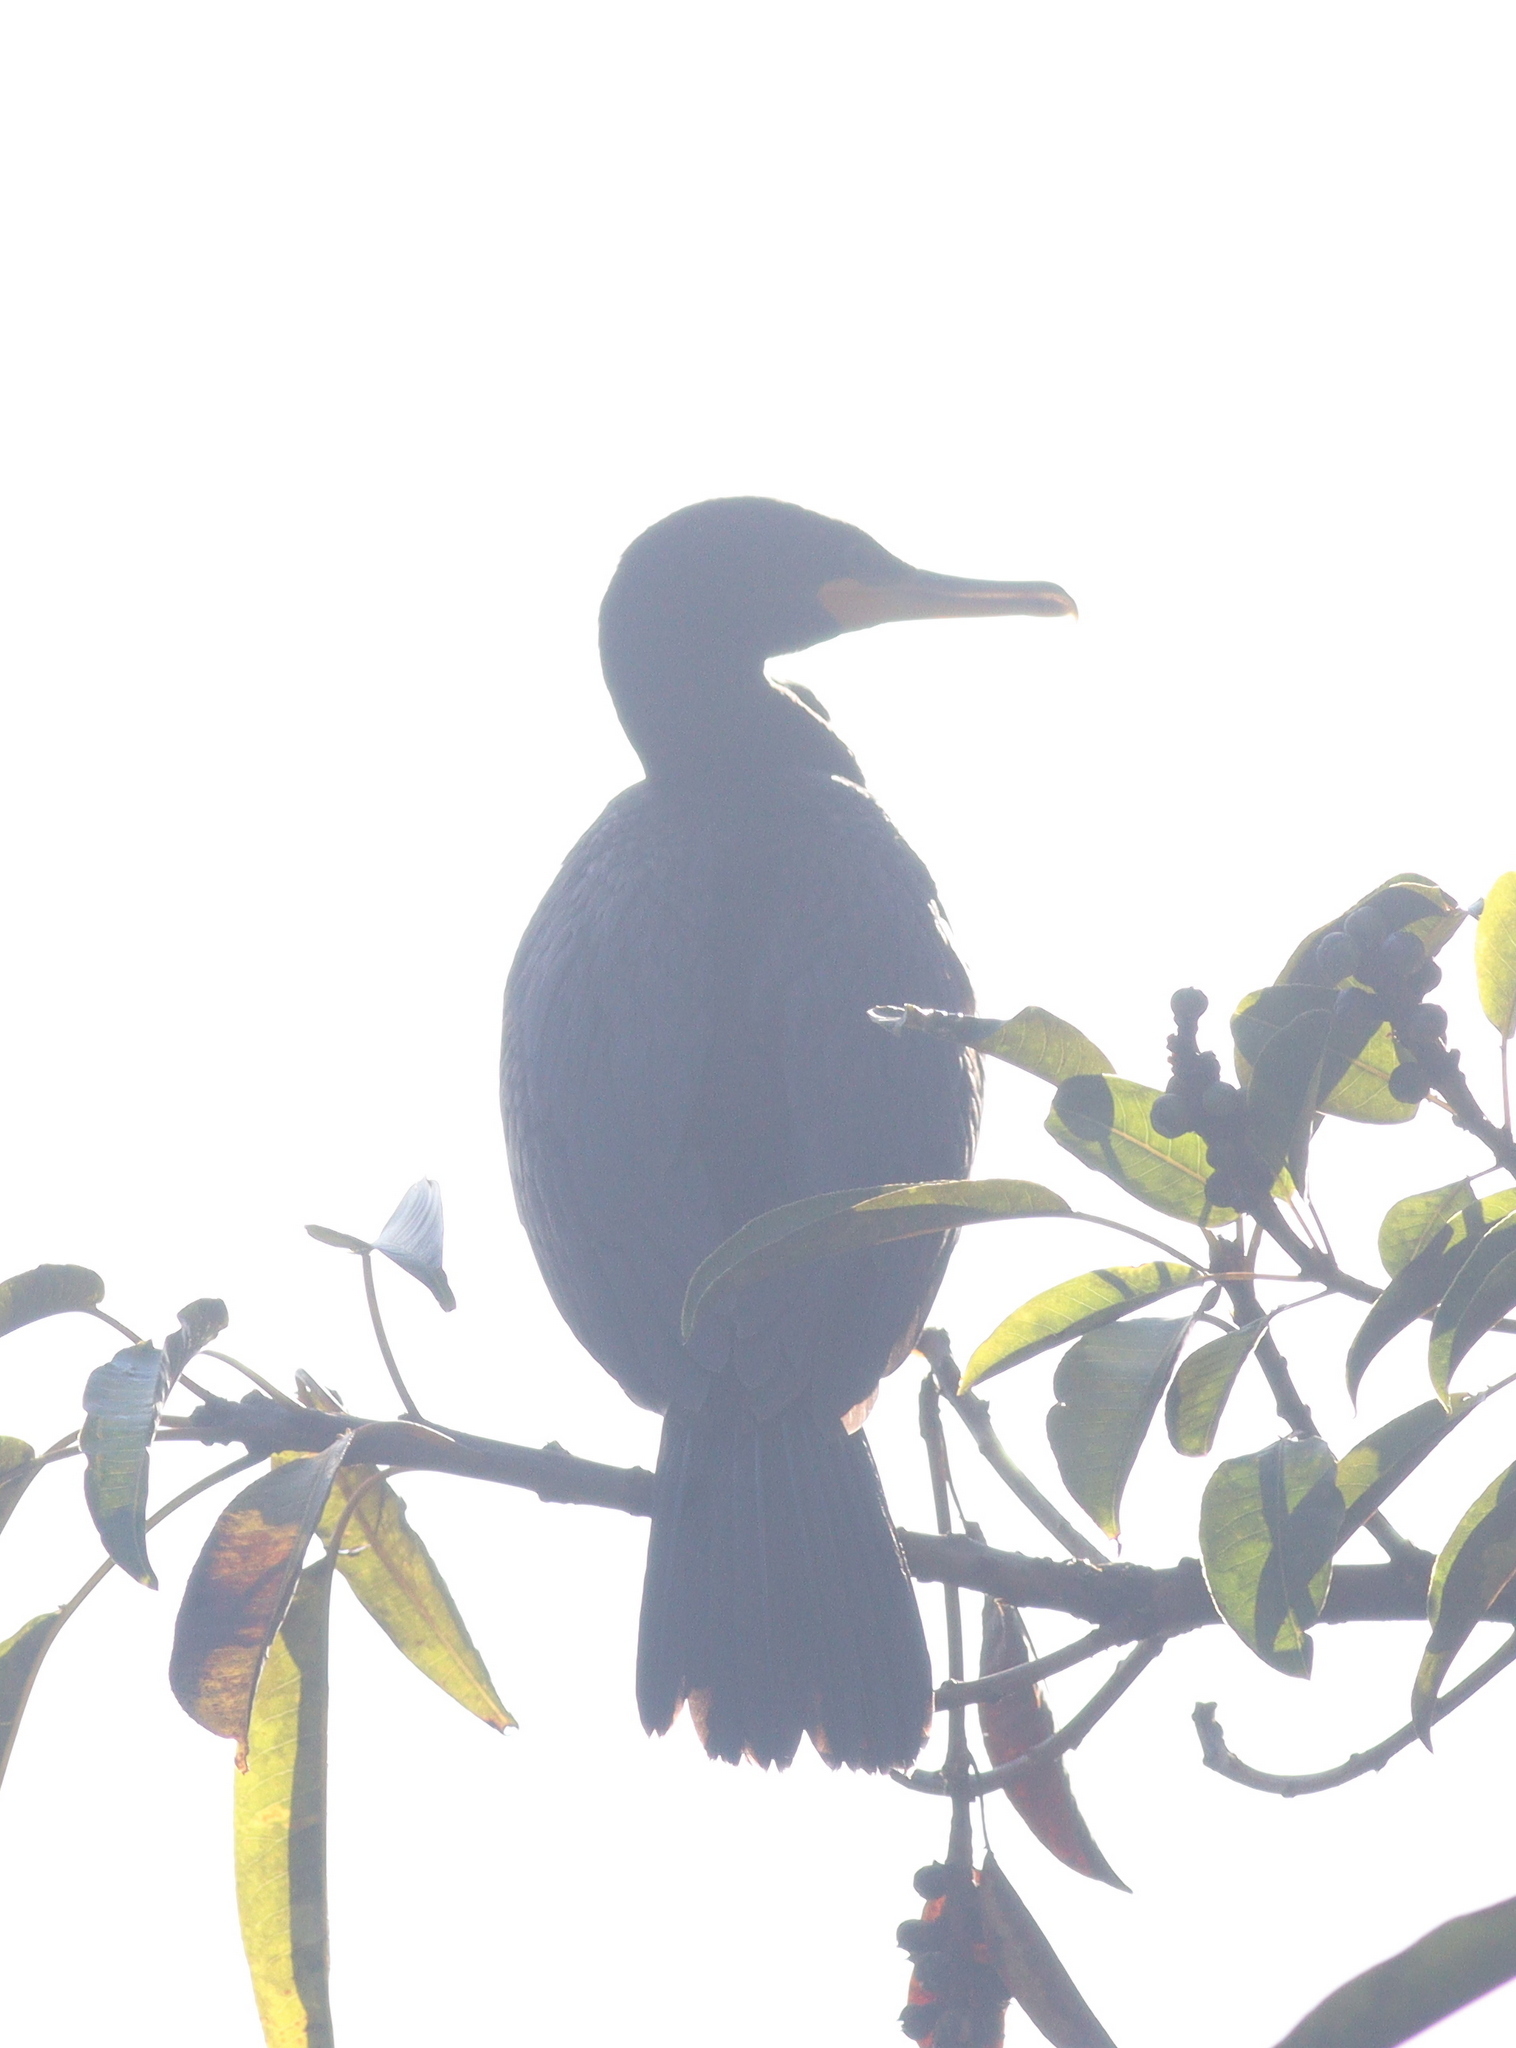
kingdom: Animalia
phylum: Chordata
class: Aves
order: Suliformes
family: Phalacrocoracidae
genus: Phalacrocorax
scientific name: Phalacrocorax brasilianus
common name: Neotropic cormorant
